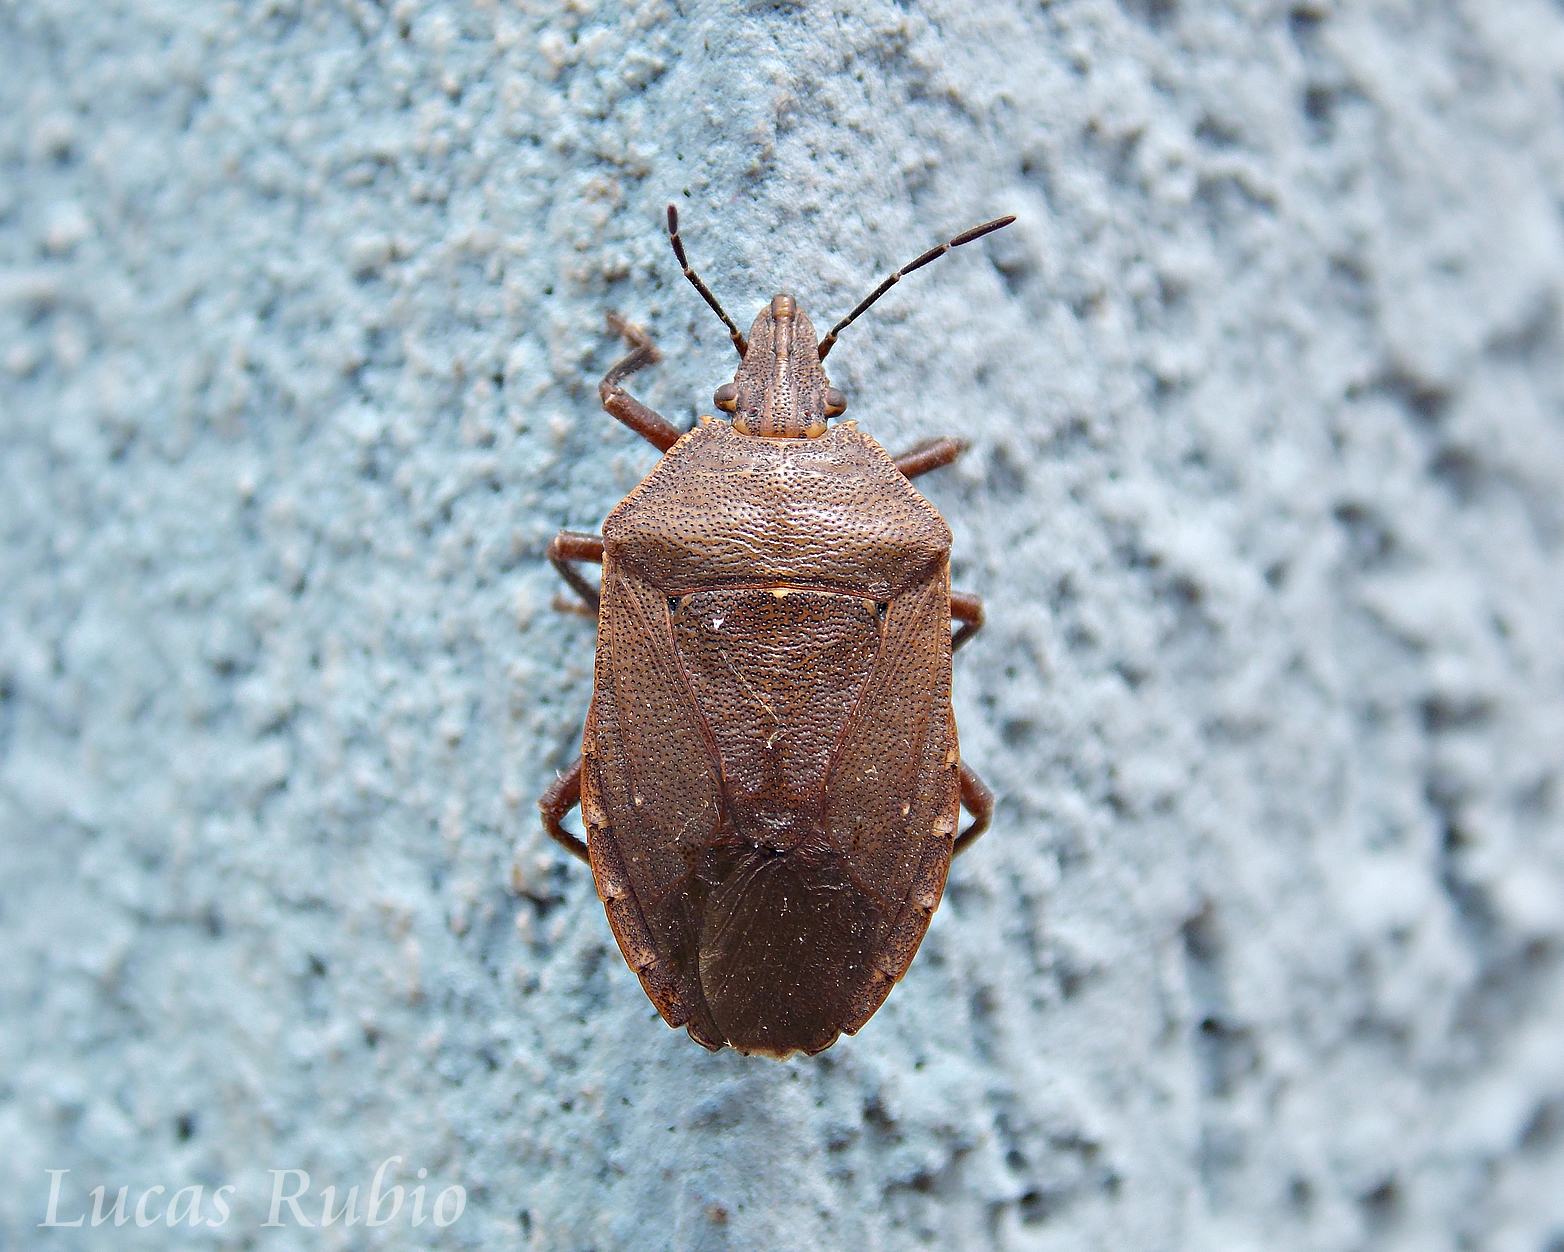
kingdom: Animalia
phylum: Arthropoda
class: Insecta
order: Hemiptera
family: Pentatomidae
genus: Tibraca
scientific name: Tibraca limbativentris
